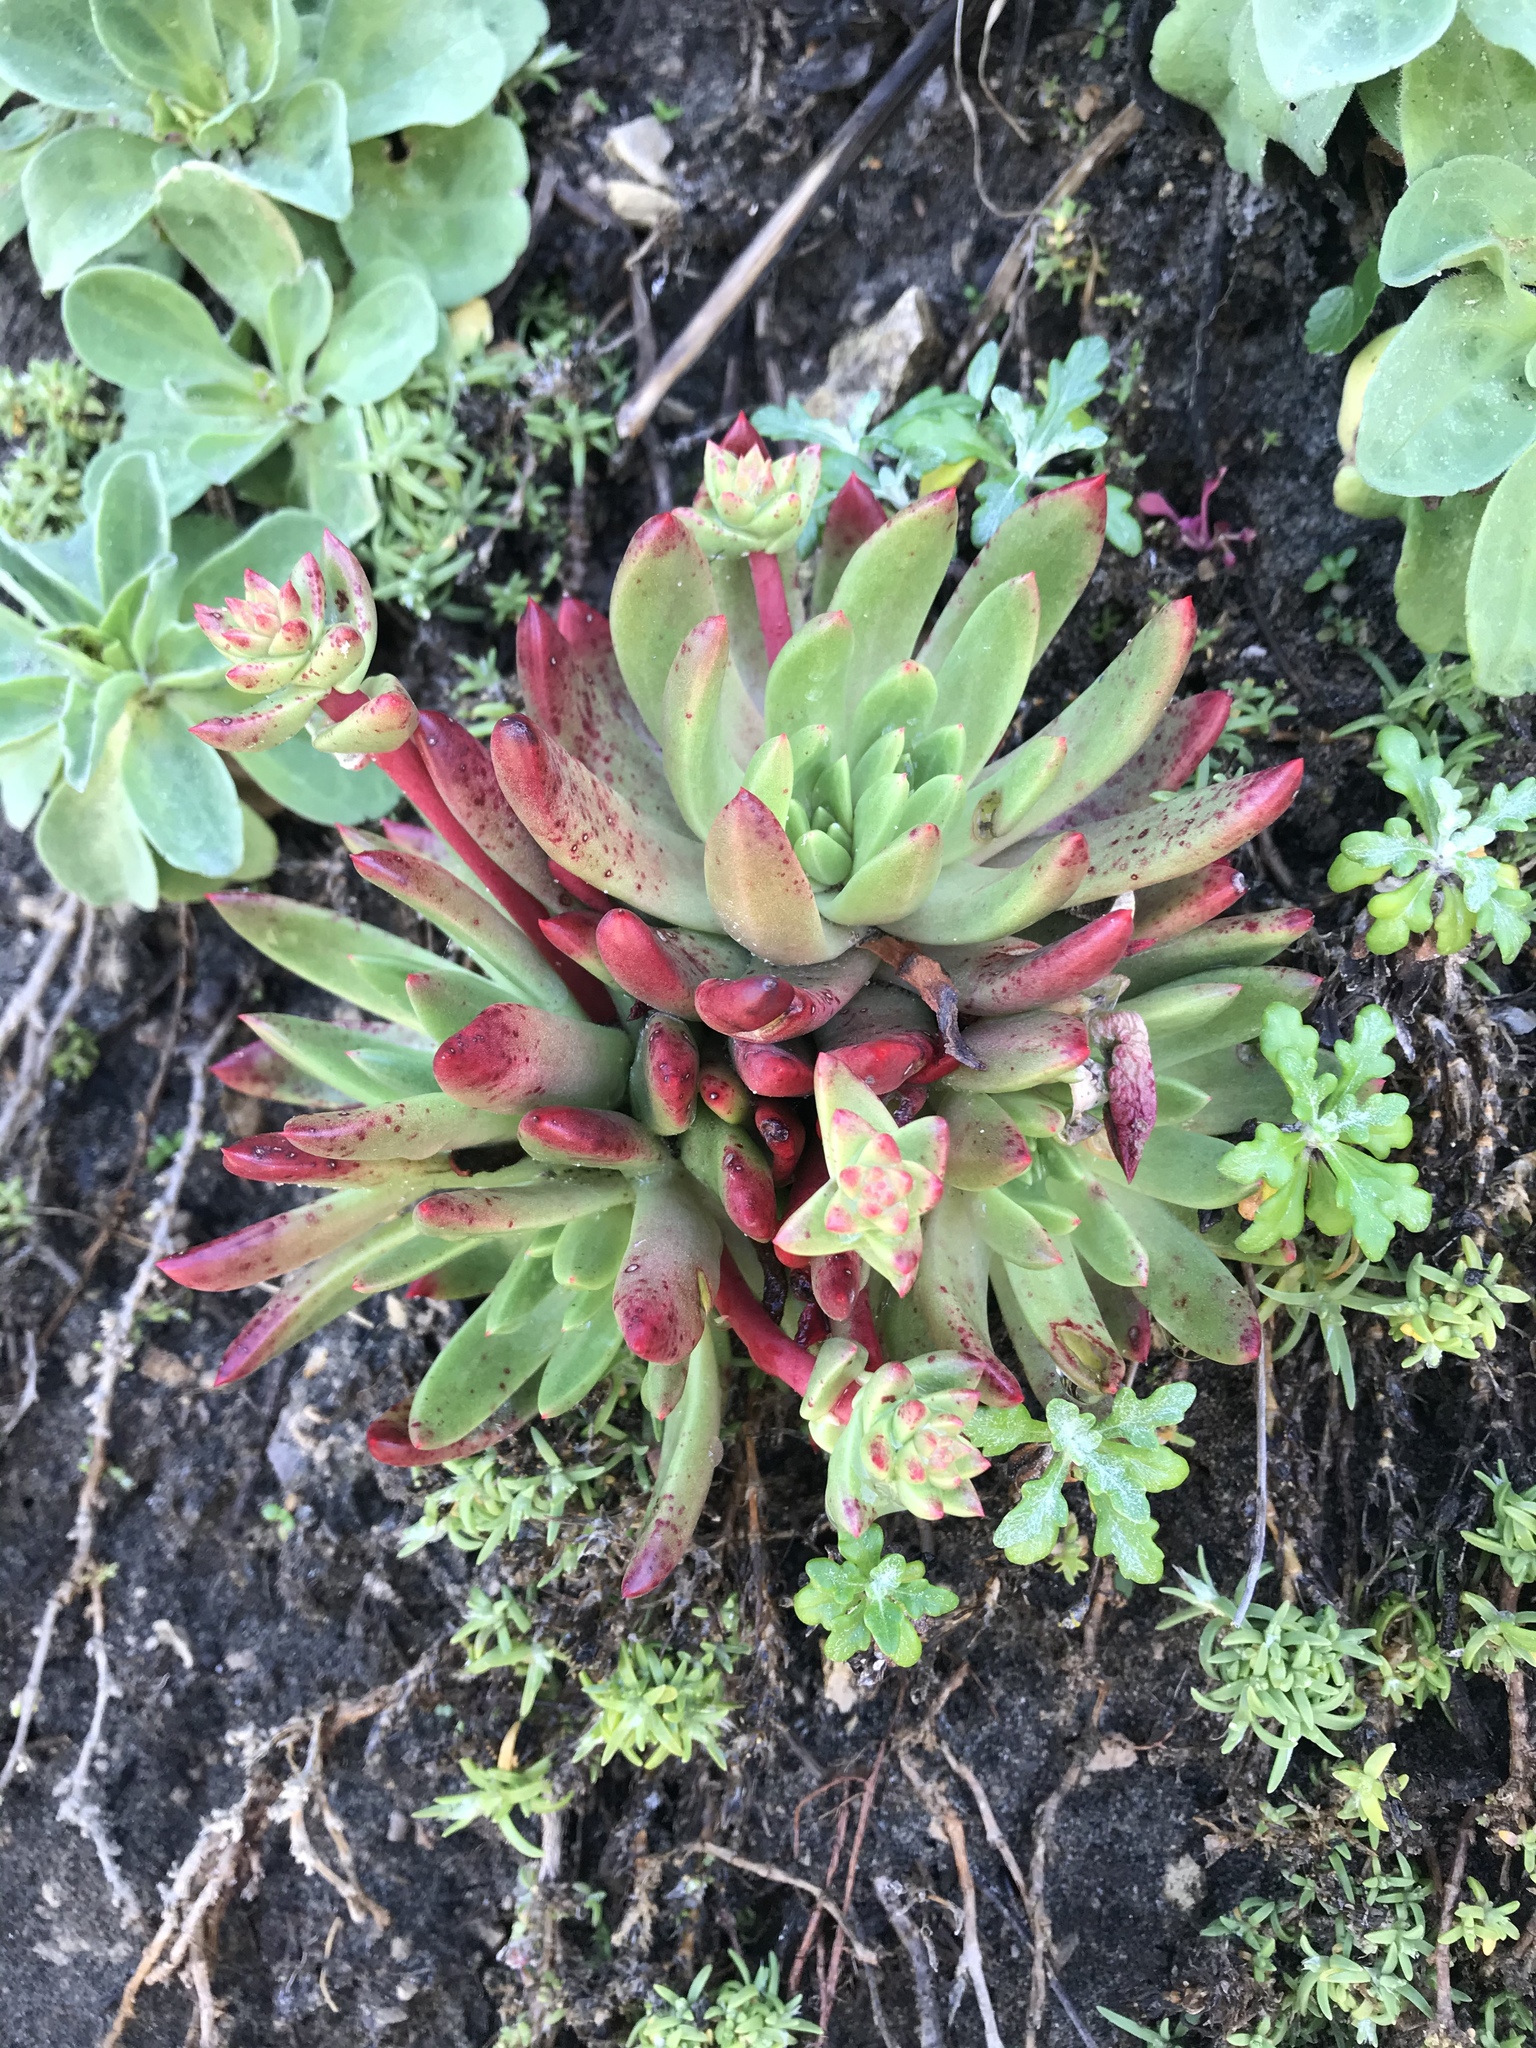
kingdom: Plantae
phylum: Tracheophyta
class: Magnoliopsida
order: Saxifragales
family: Crassulaceae
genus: Dudleya
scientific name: Dudleya farinosa
